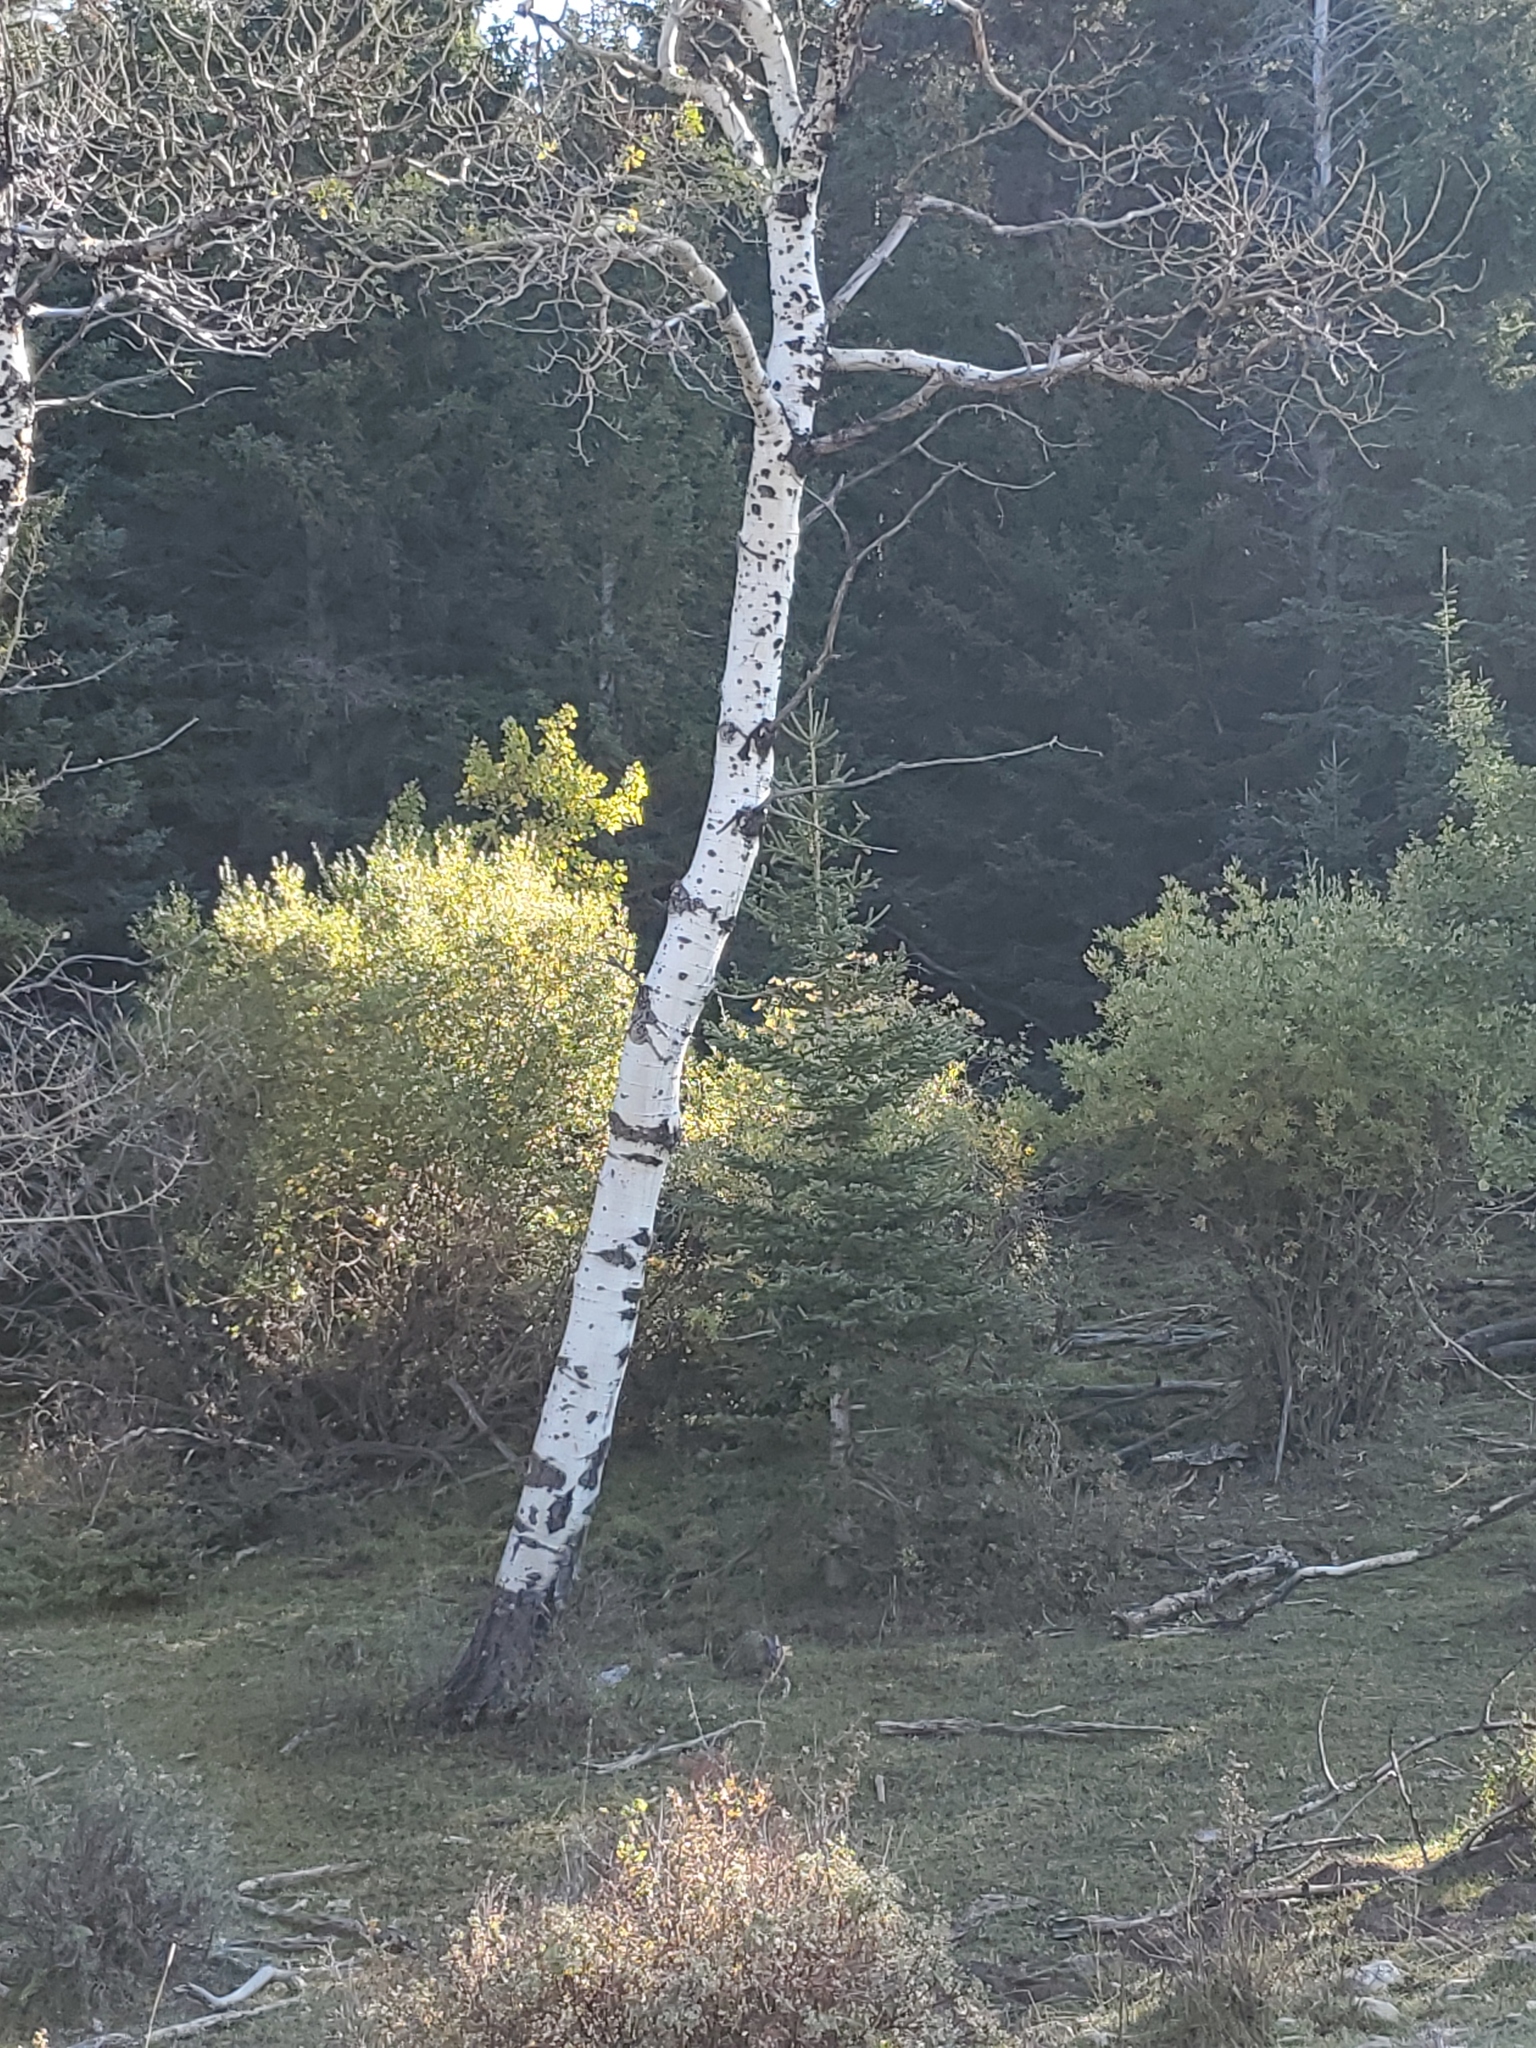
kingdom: Plantae
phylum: Tracheophyta
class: Magnoliopsida
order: Malpighiales
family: Salicaceae
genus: Populus
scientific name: Populus tremuloides
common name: Quaking aspen
